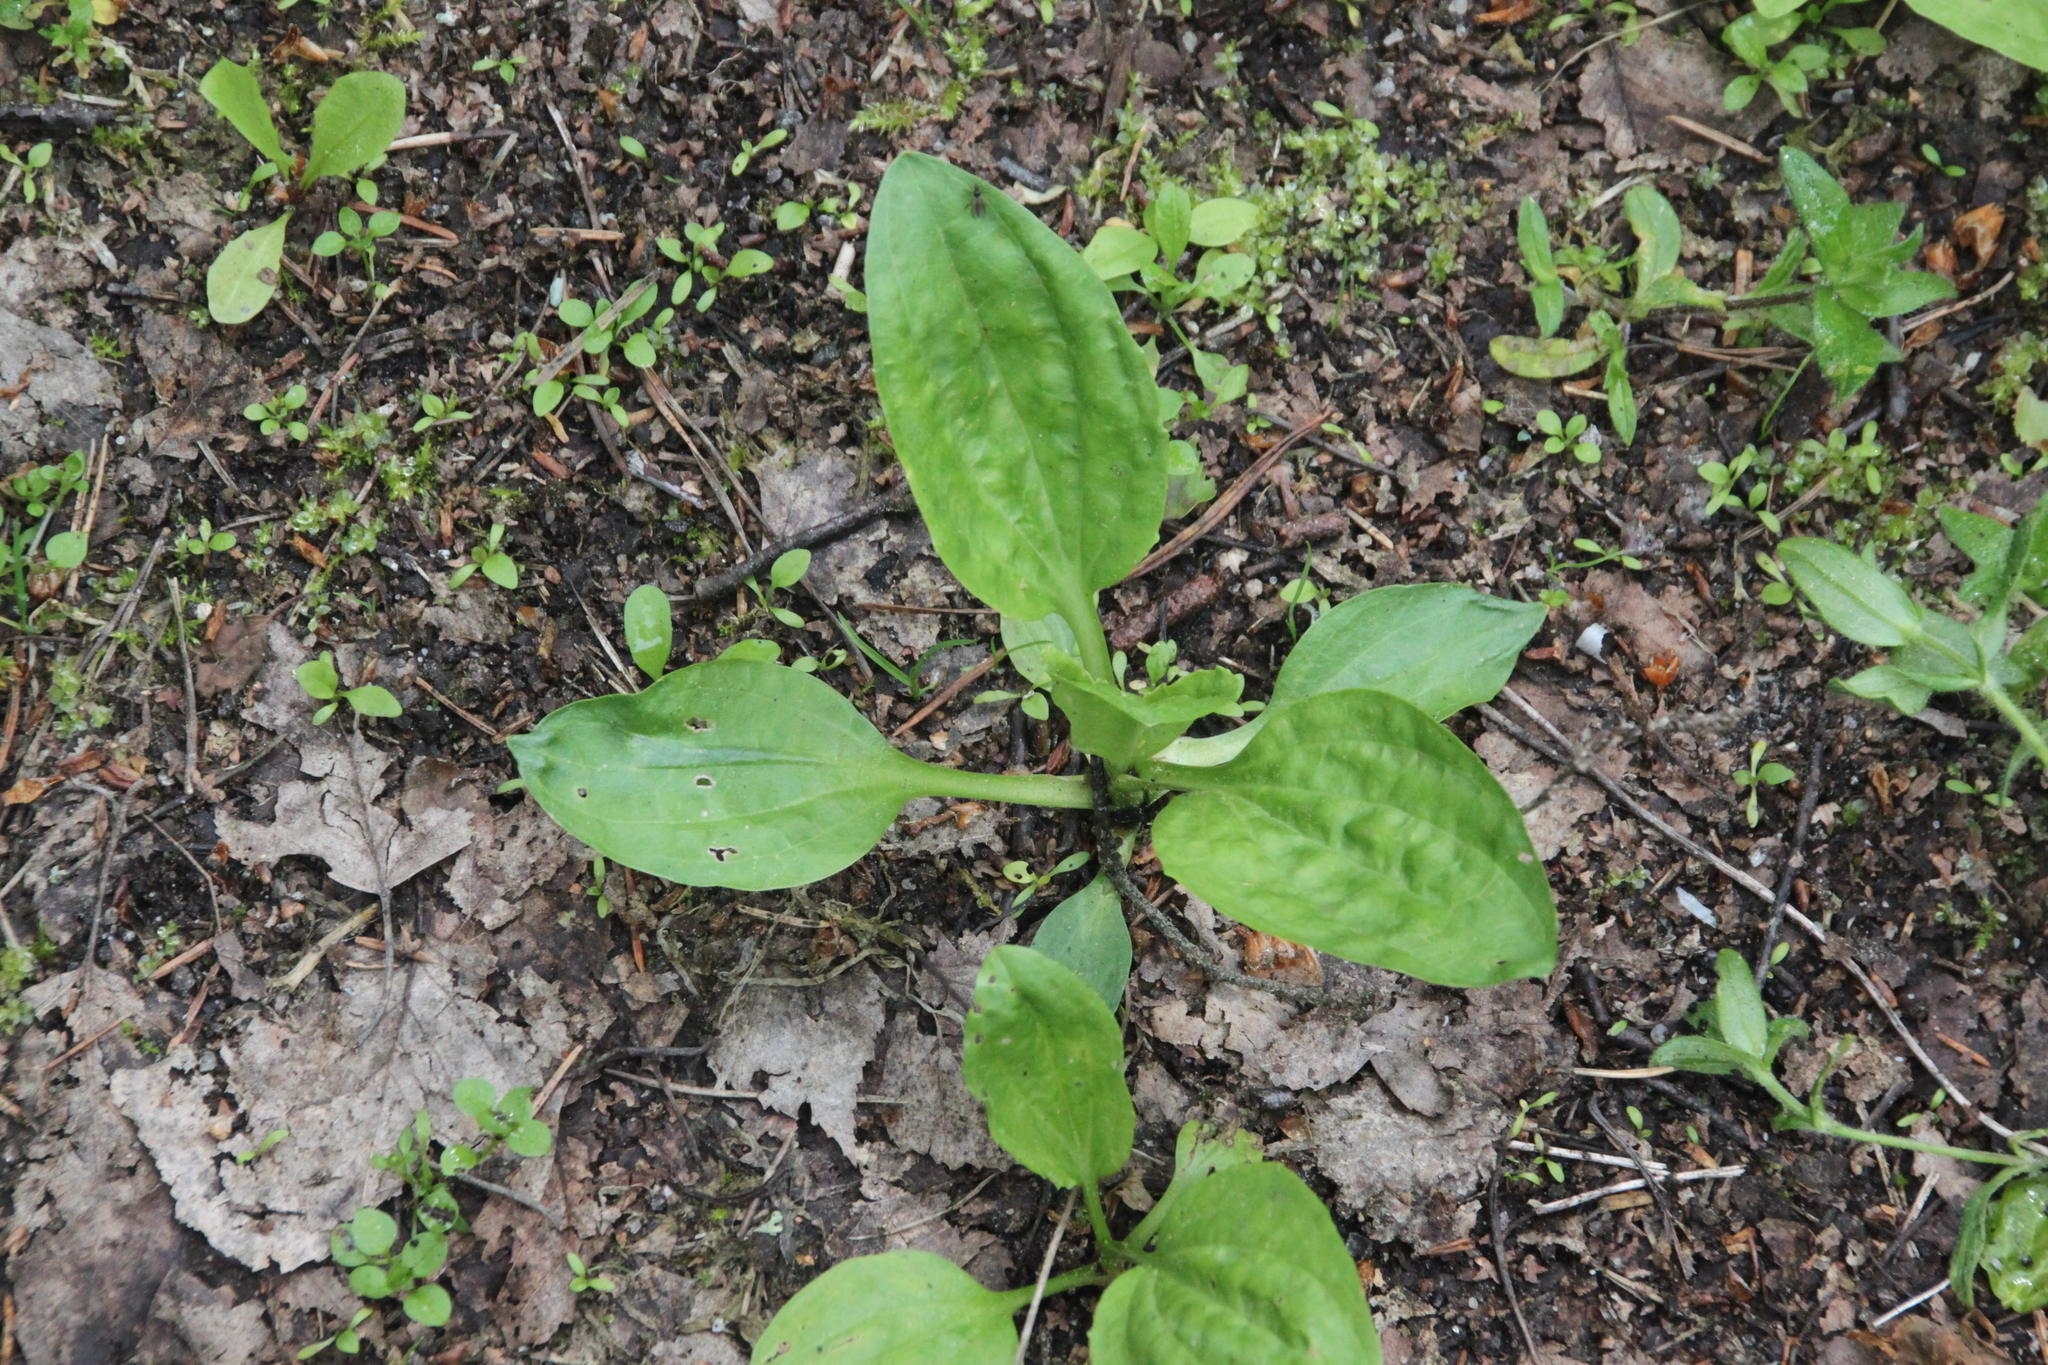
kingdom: Plantae
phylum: Tracheophyta
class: Magnoliopsida
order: Lamiales
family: Plantaginaceae
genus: Plantago
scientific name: Plantago major
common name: Common plantain
